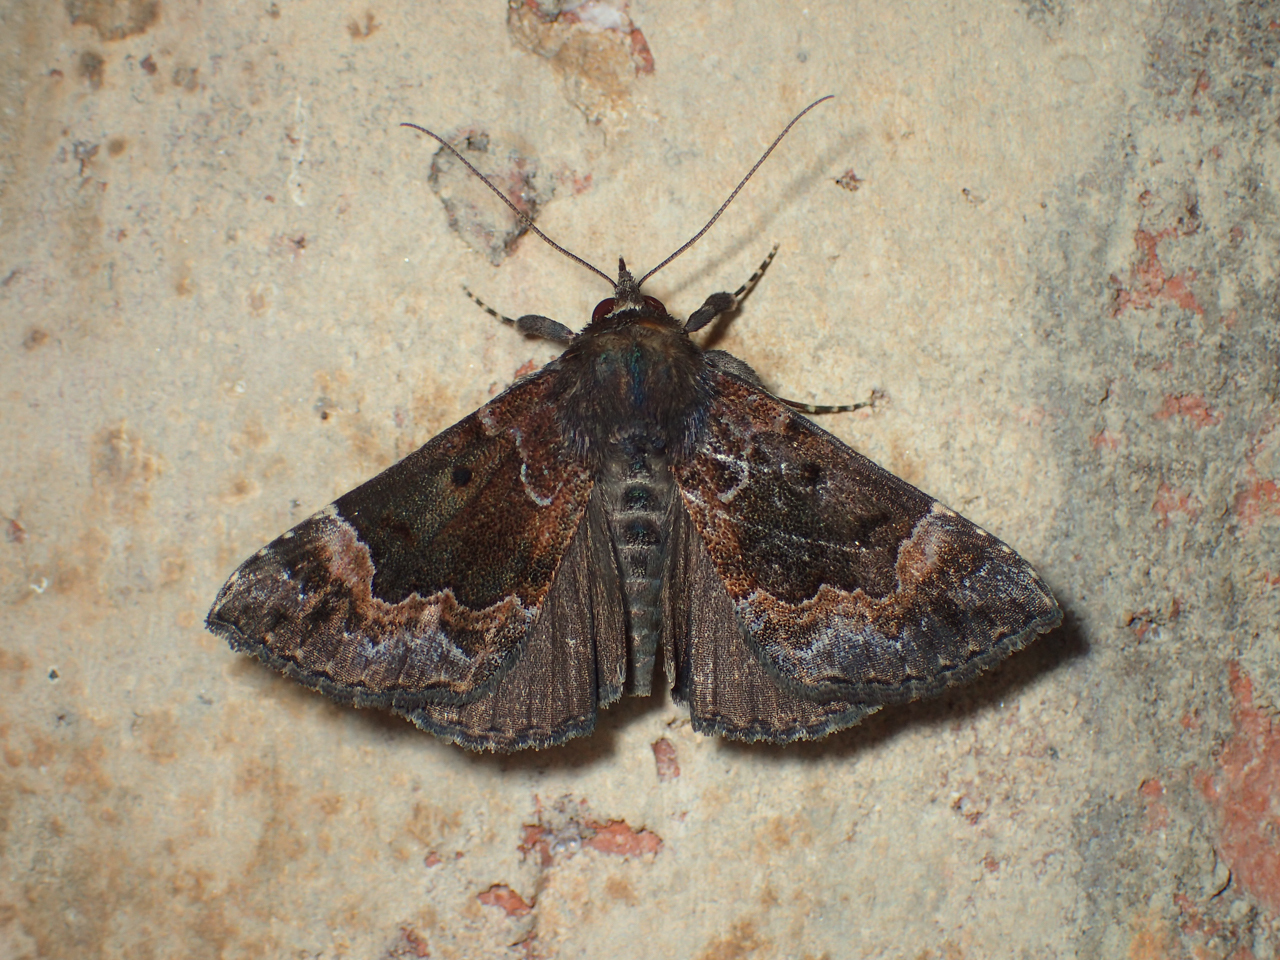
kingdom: Animalia
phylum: Arthropoda
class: Insecta
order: Lepidoptera
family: Erebidae
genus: Hypena
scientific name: Hypena palparia
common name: Mottled bomolocha moth
